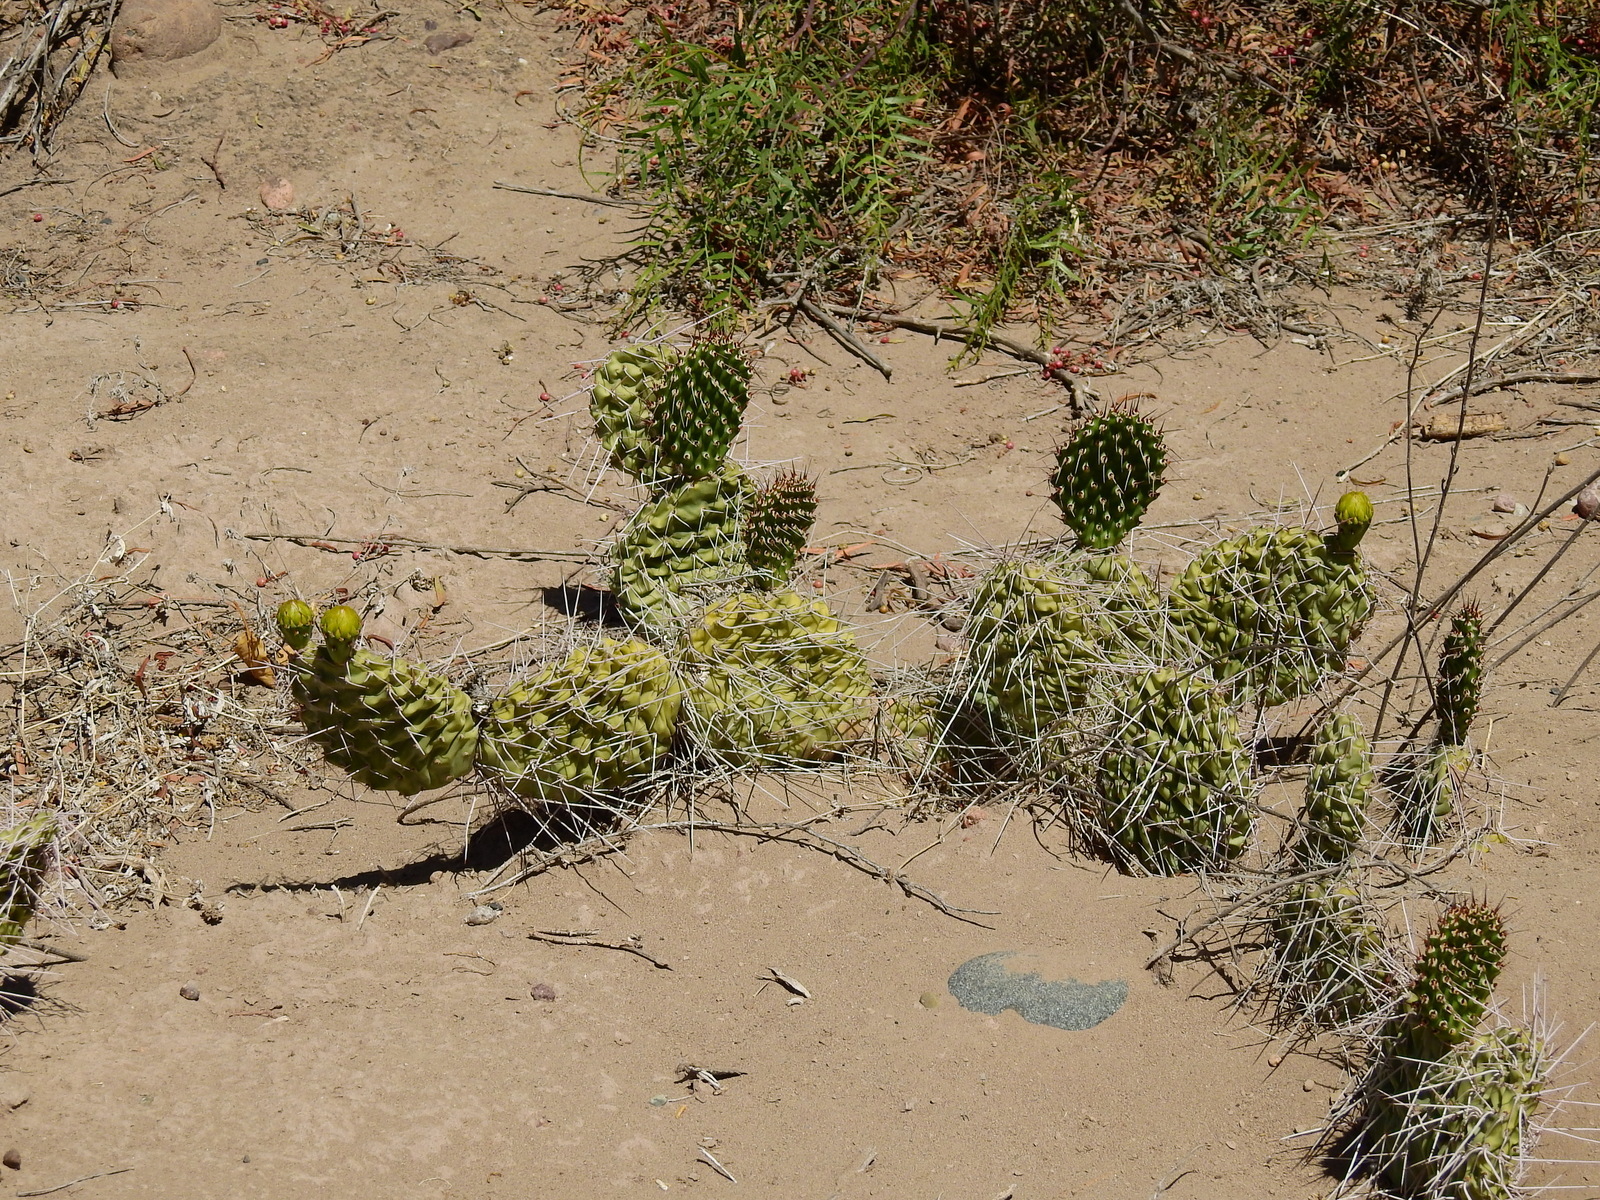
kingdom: Plantae
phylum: Tracheophyta
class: Magnoliopsida
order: Caryophyllales
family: Cactaceae
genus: Opuntia
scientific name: Opuntia sulphurea
